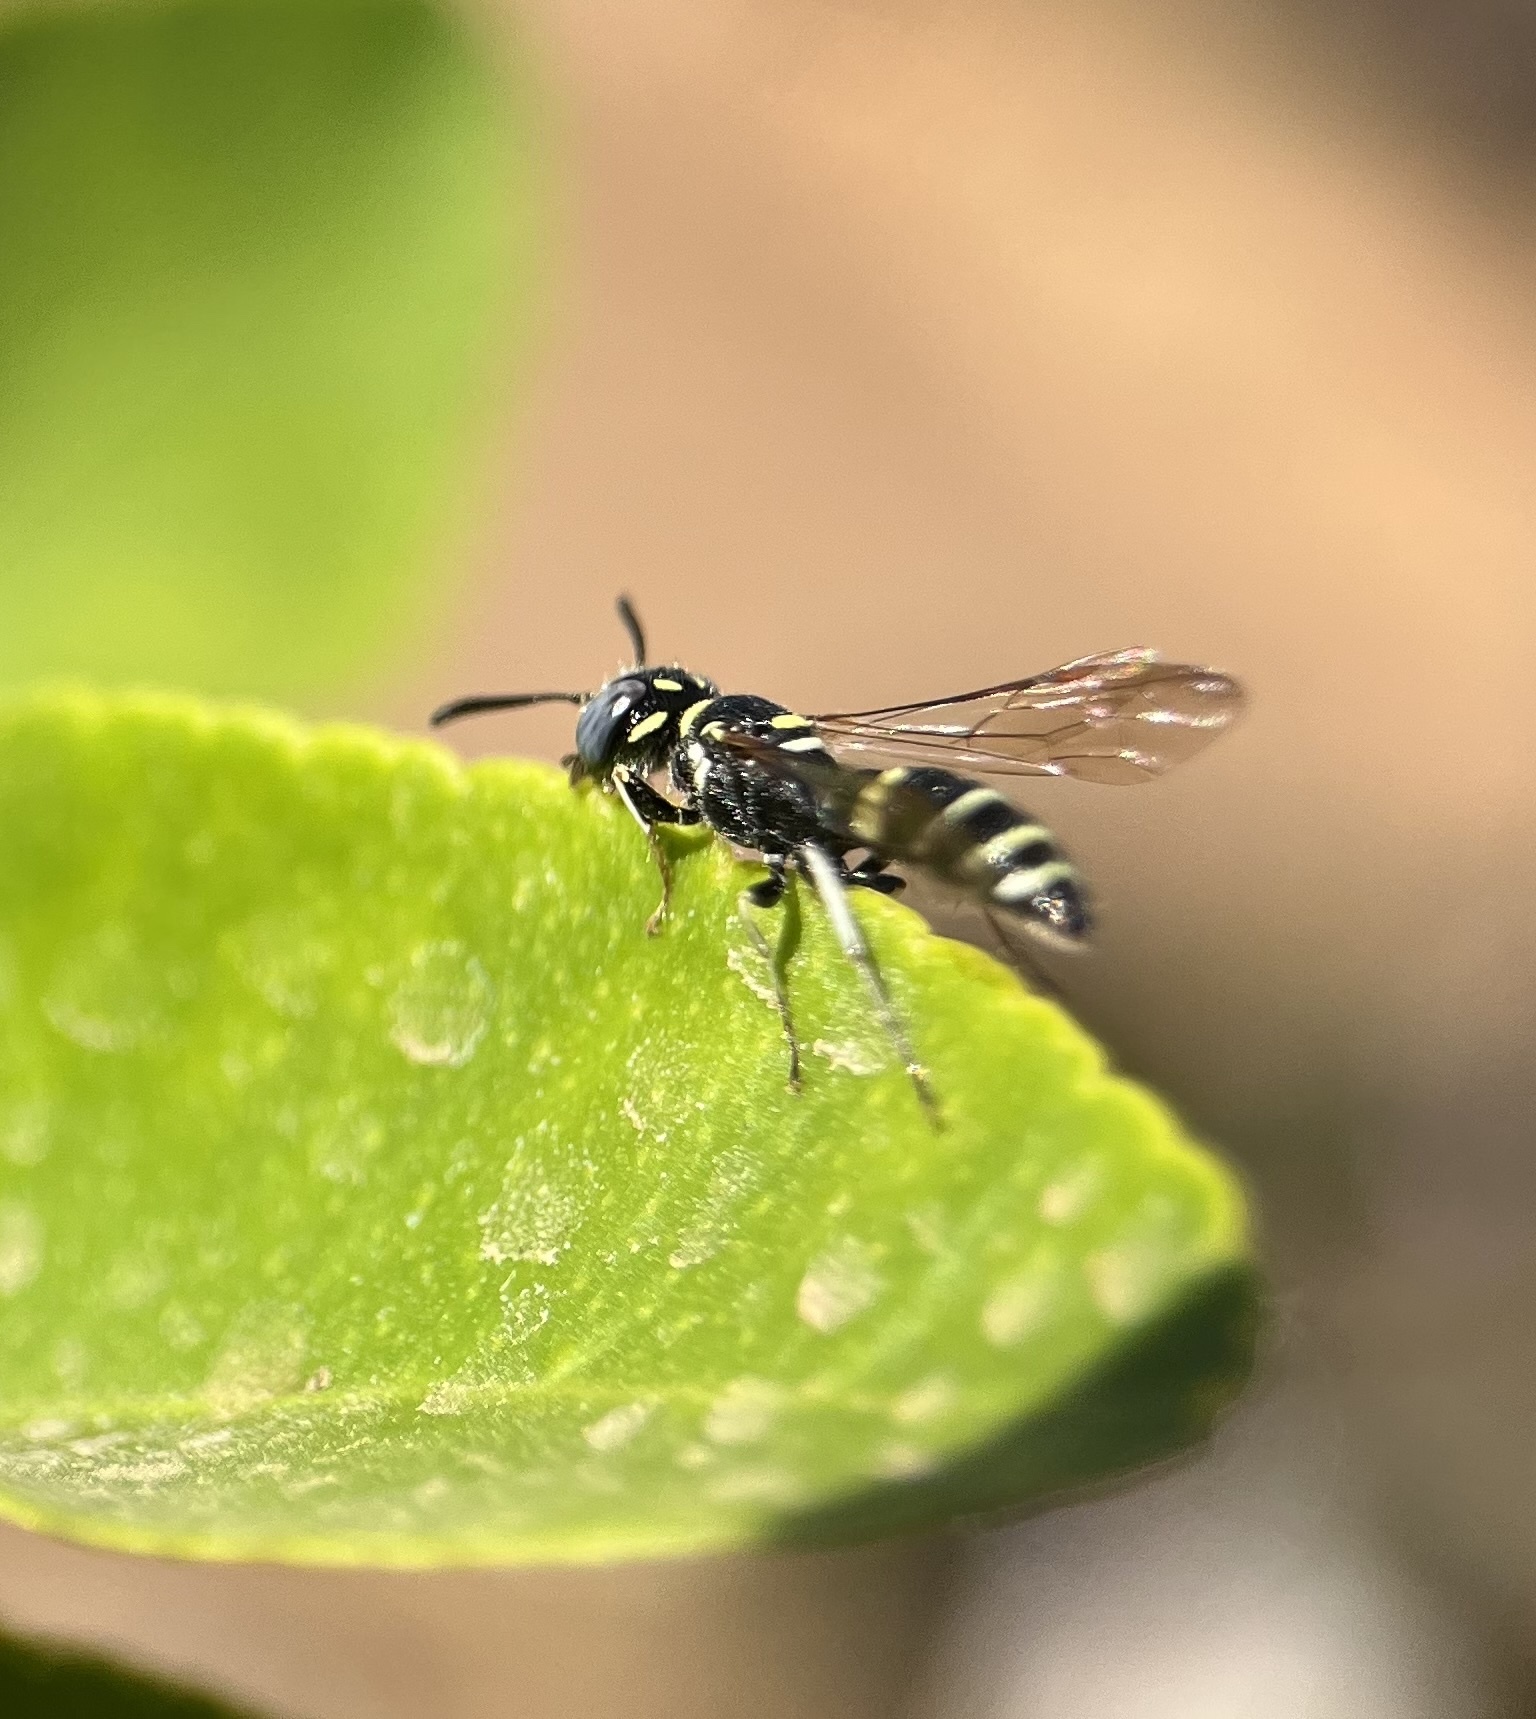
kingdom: Animalia
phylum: Arthropoda
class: Insecta
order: Hymenoptera
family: Crabronidae
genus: Philanthus
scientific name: Philanthus gibbosus
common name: Humped beewolf
